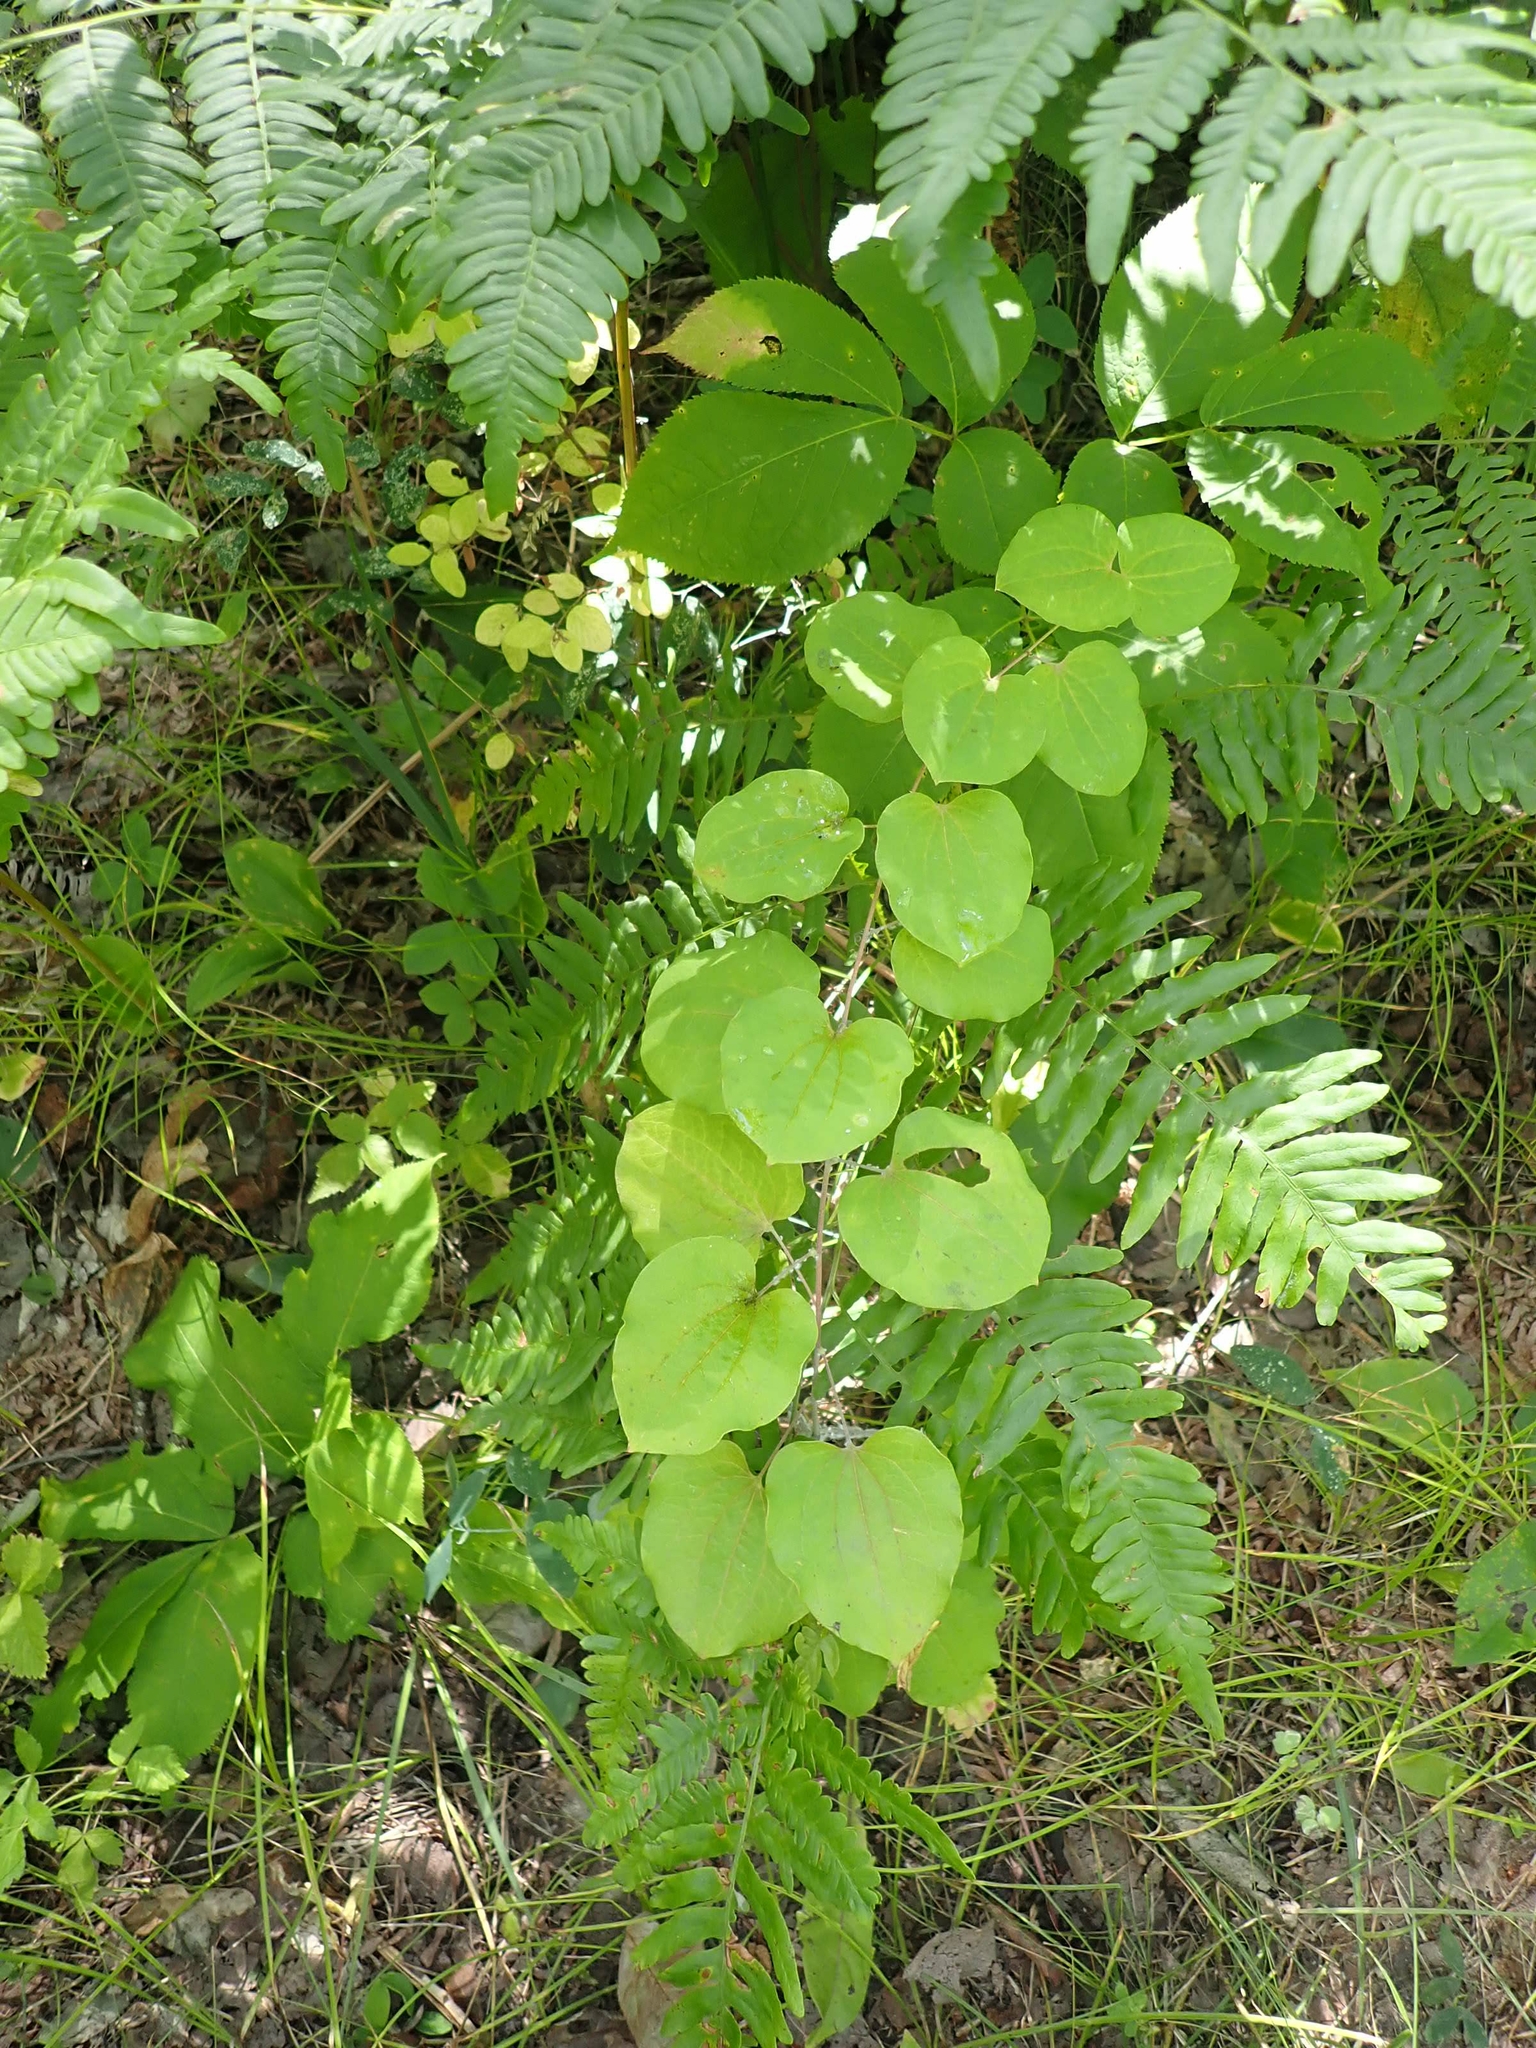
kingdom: Plantae
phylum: Tracheophyta
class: Liliopsida
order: Liliales
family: Smilacaceae
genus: Smilax
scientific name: Smilax lasioneura
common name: Blue ridge carrionflower
